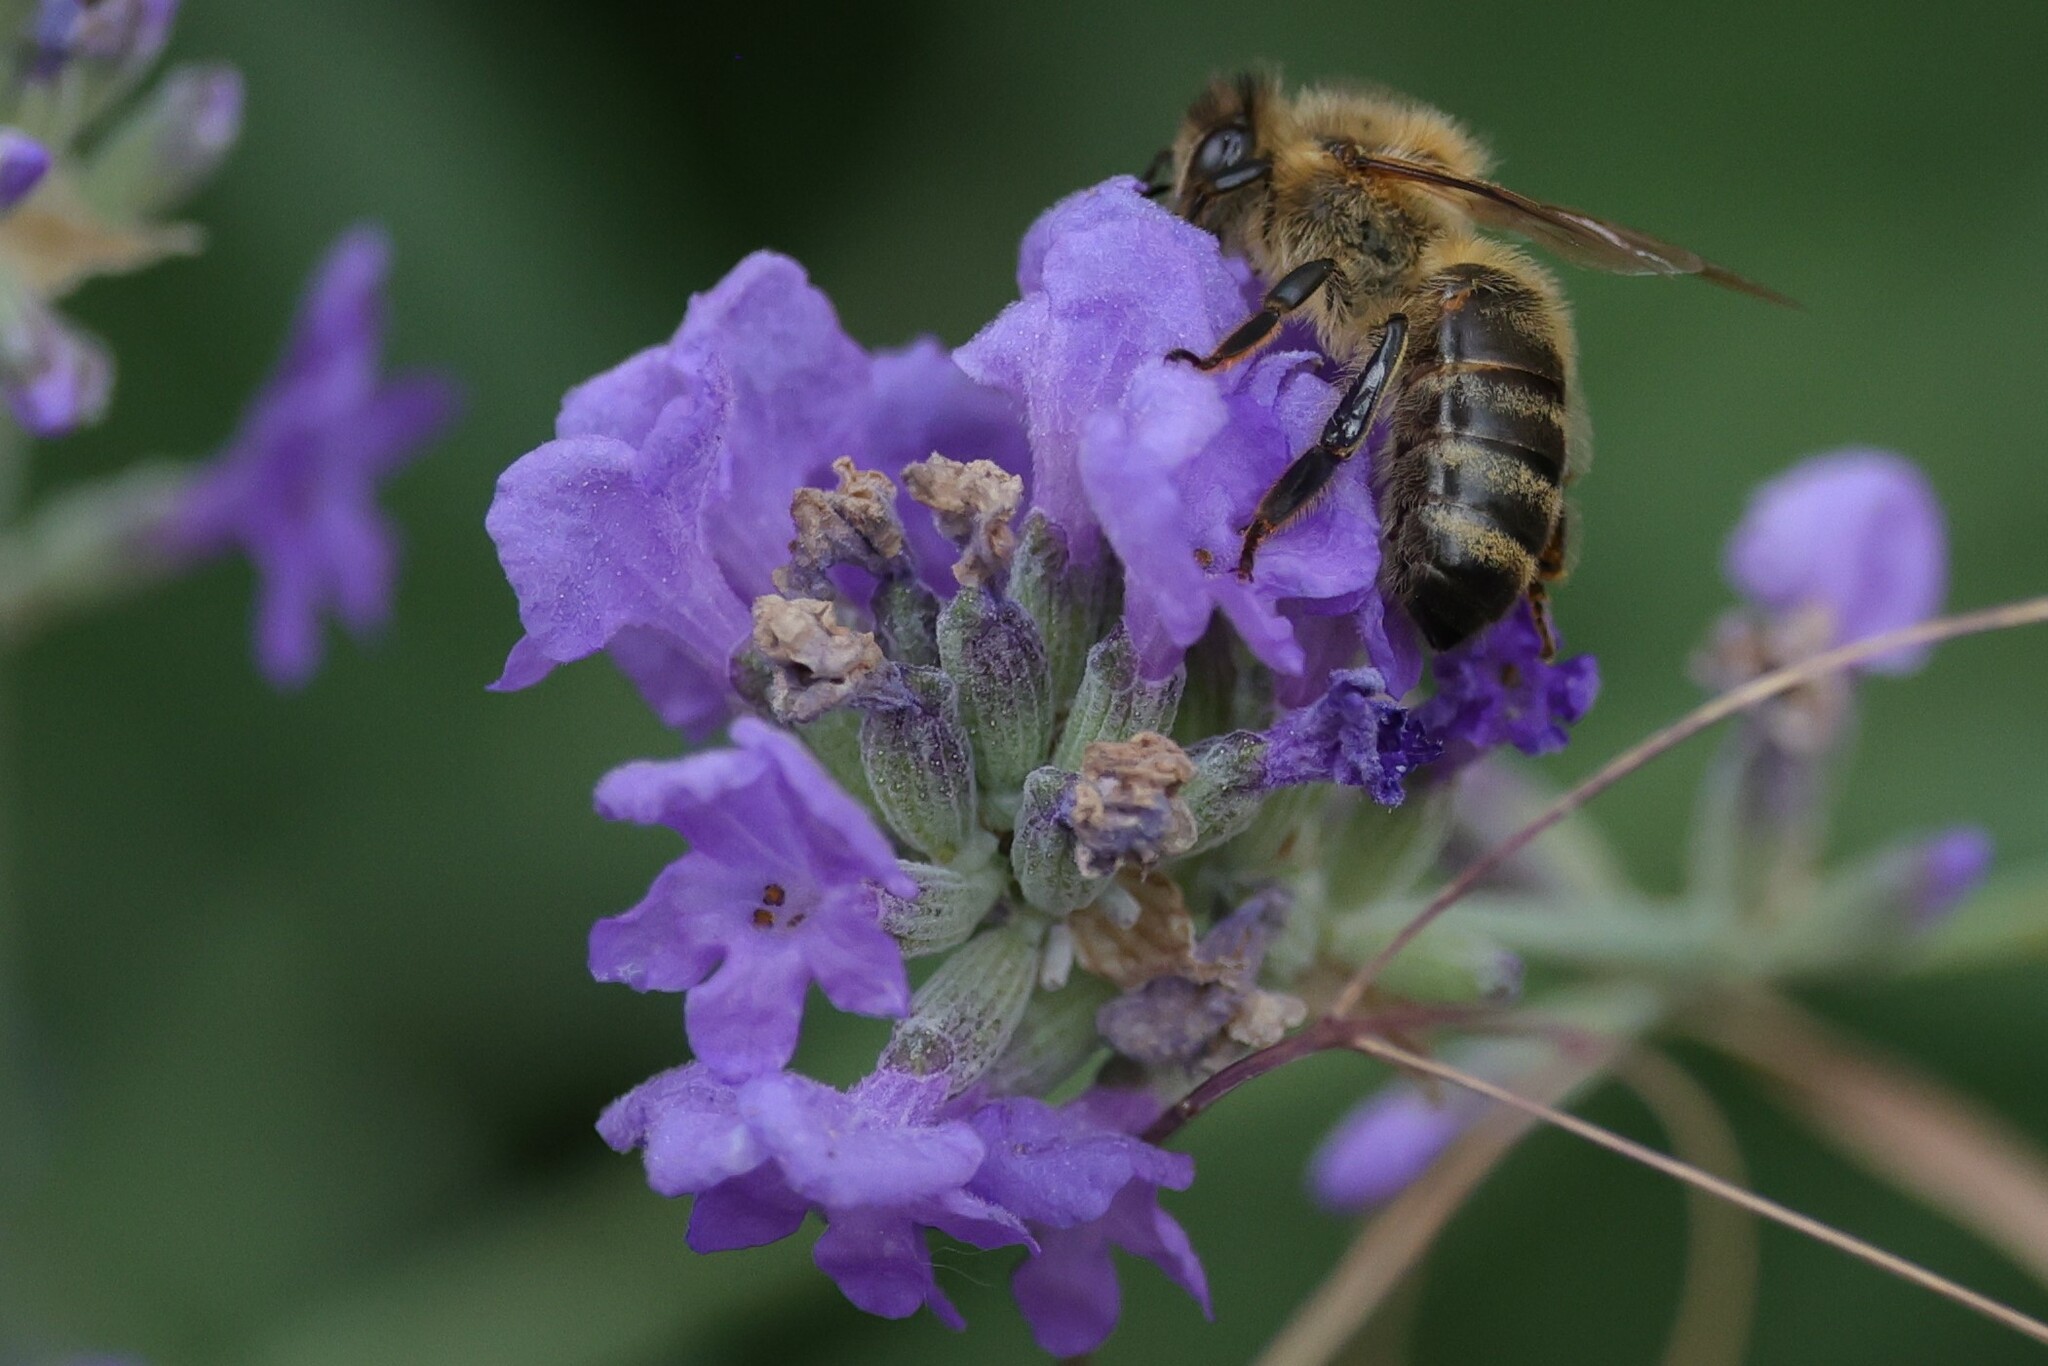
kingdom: Animalia
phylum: Arthropoda
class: Insecta
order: Hymenoptera
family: Apidae
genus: Apis
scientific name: Apis mellifera
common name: Honey bee
